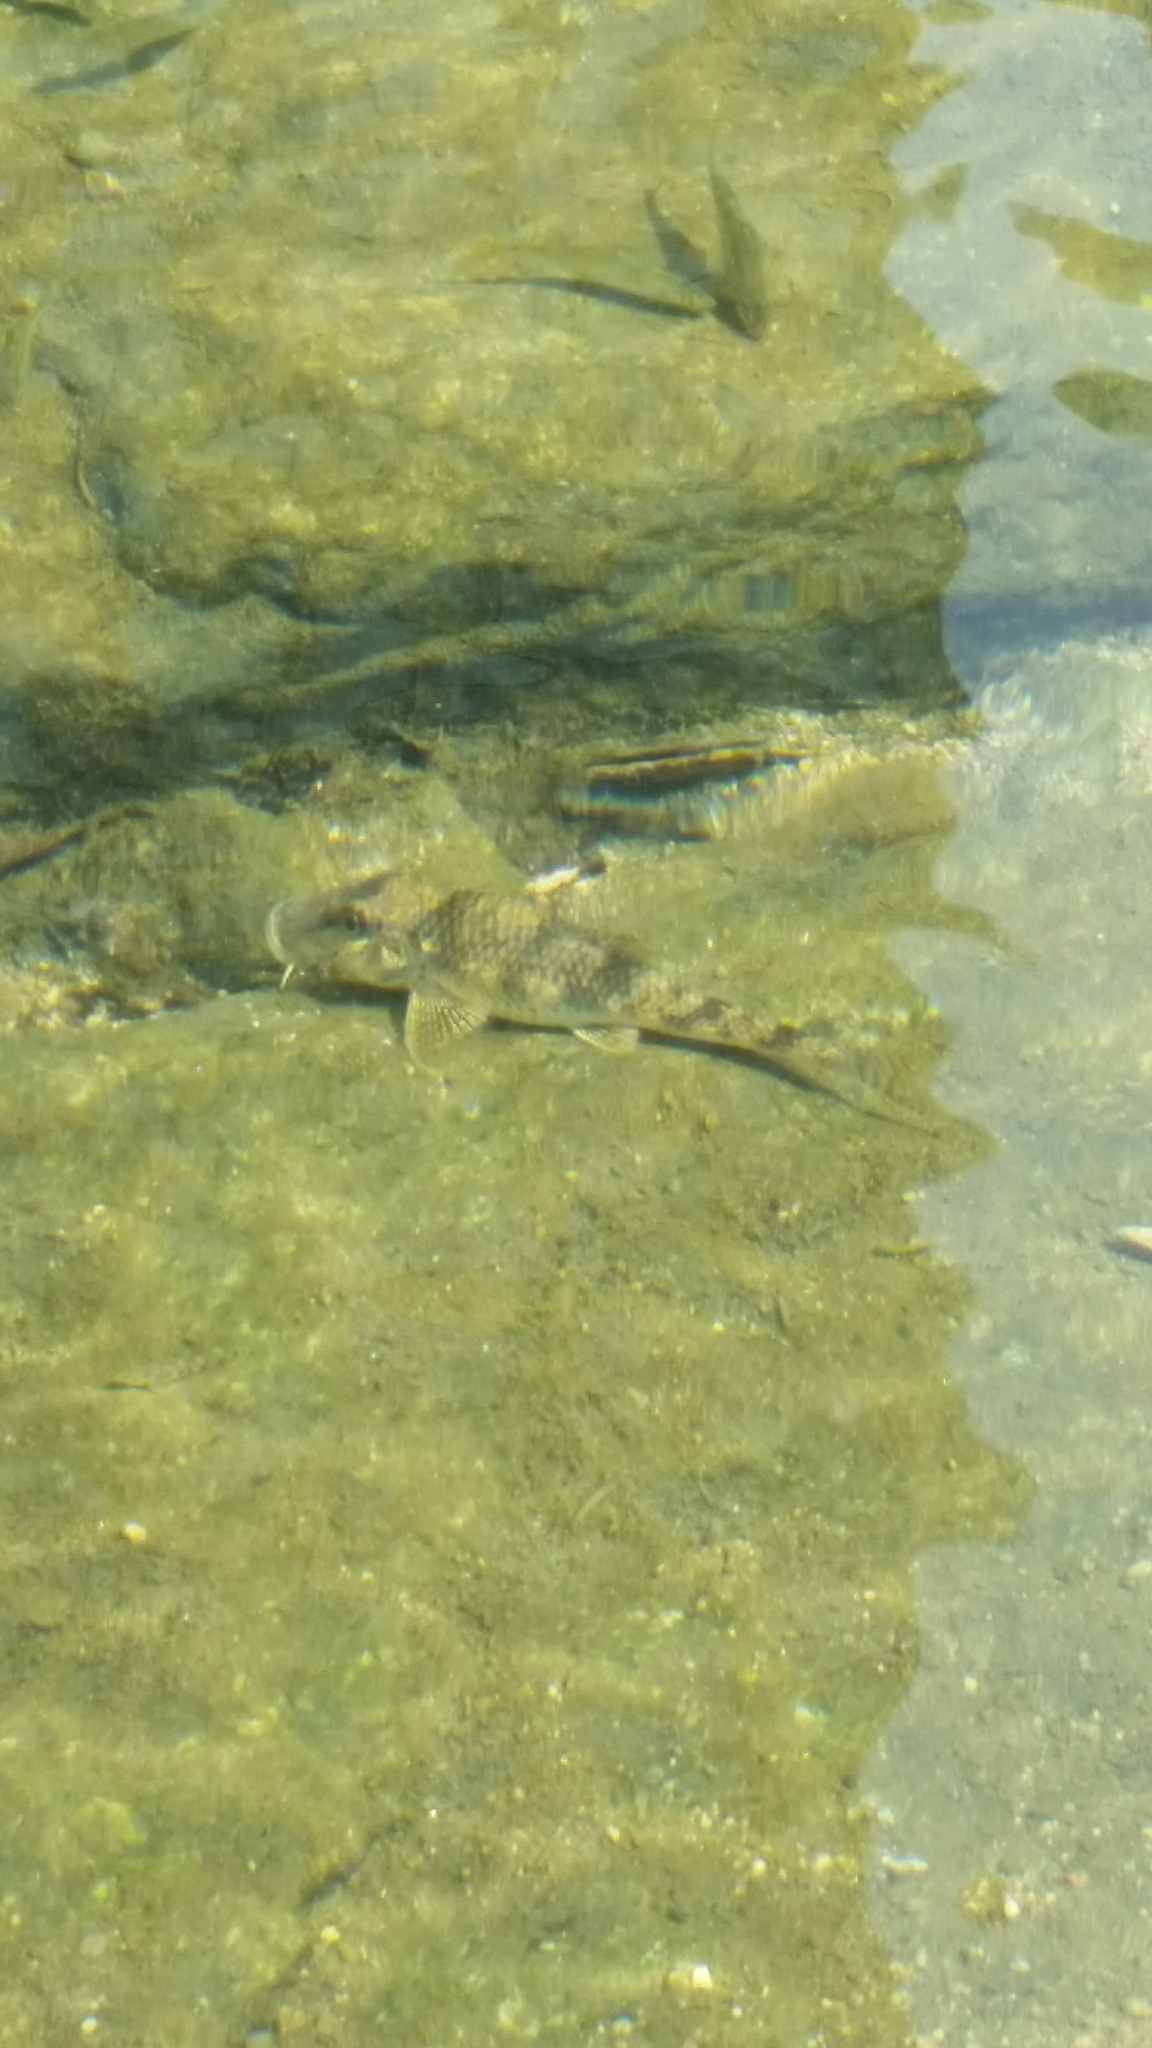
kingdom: Animalia
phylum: Chordata
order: Cypriniformes
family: Cyprinidae
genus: Abbottina
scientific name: Abbottina rivularis
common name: Amur false gudgeon
